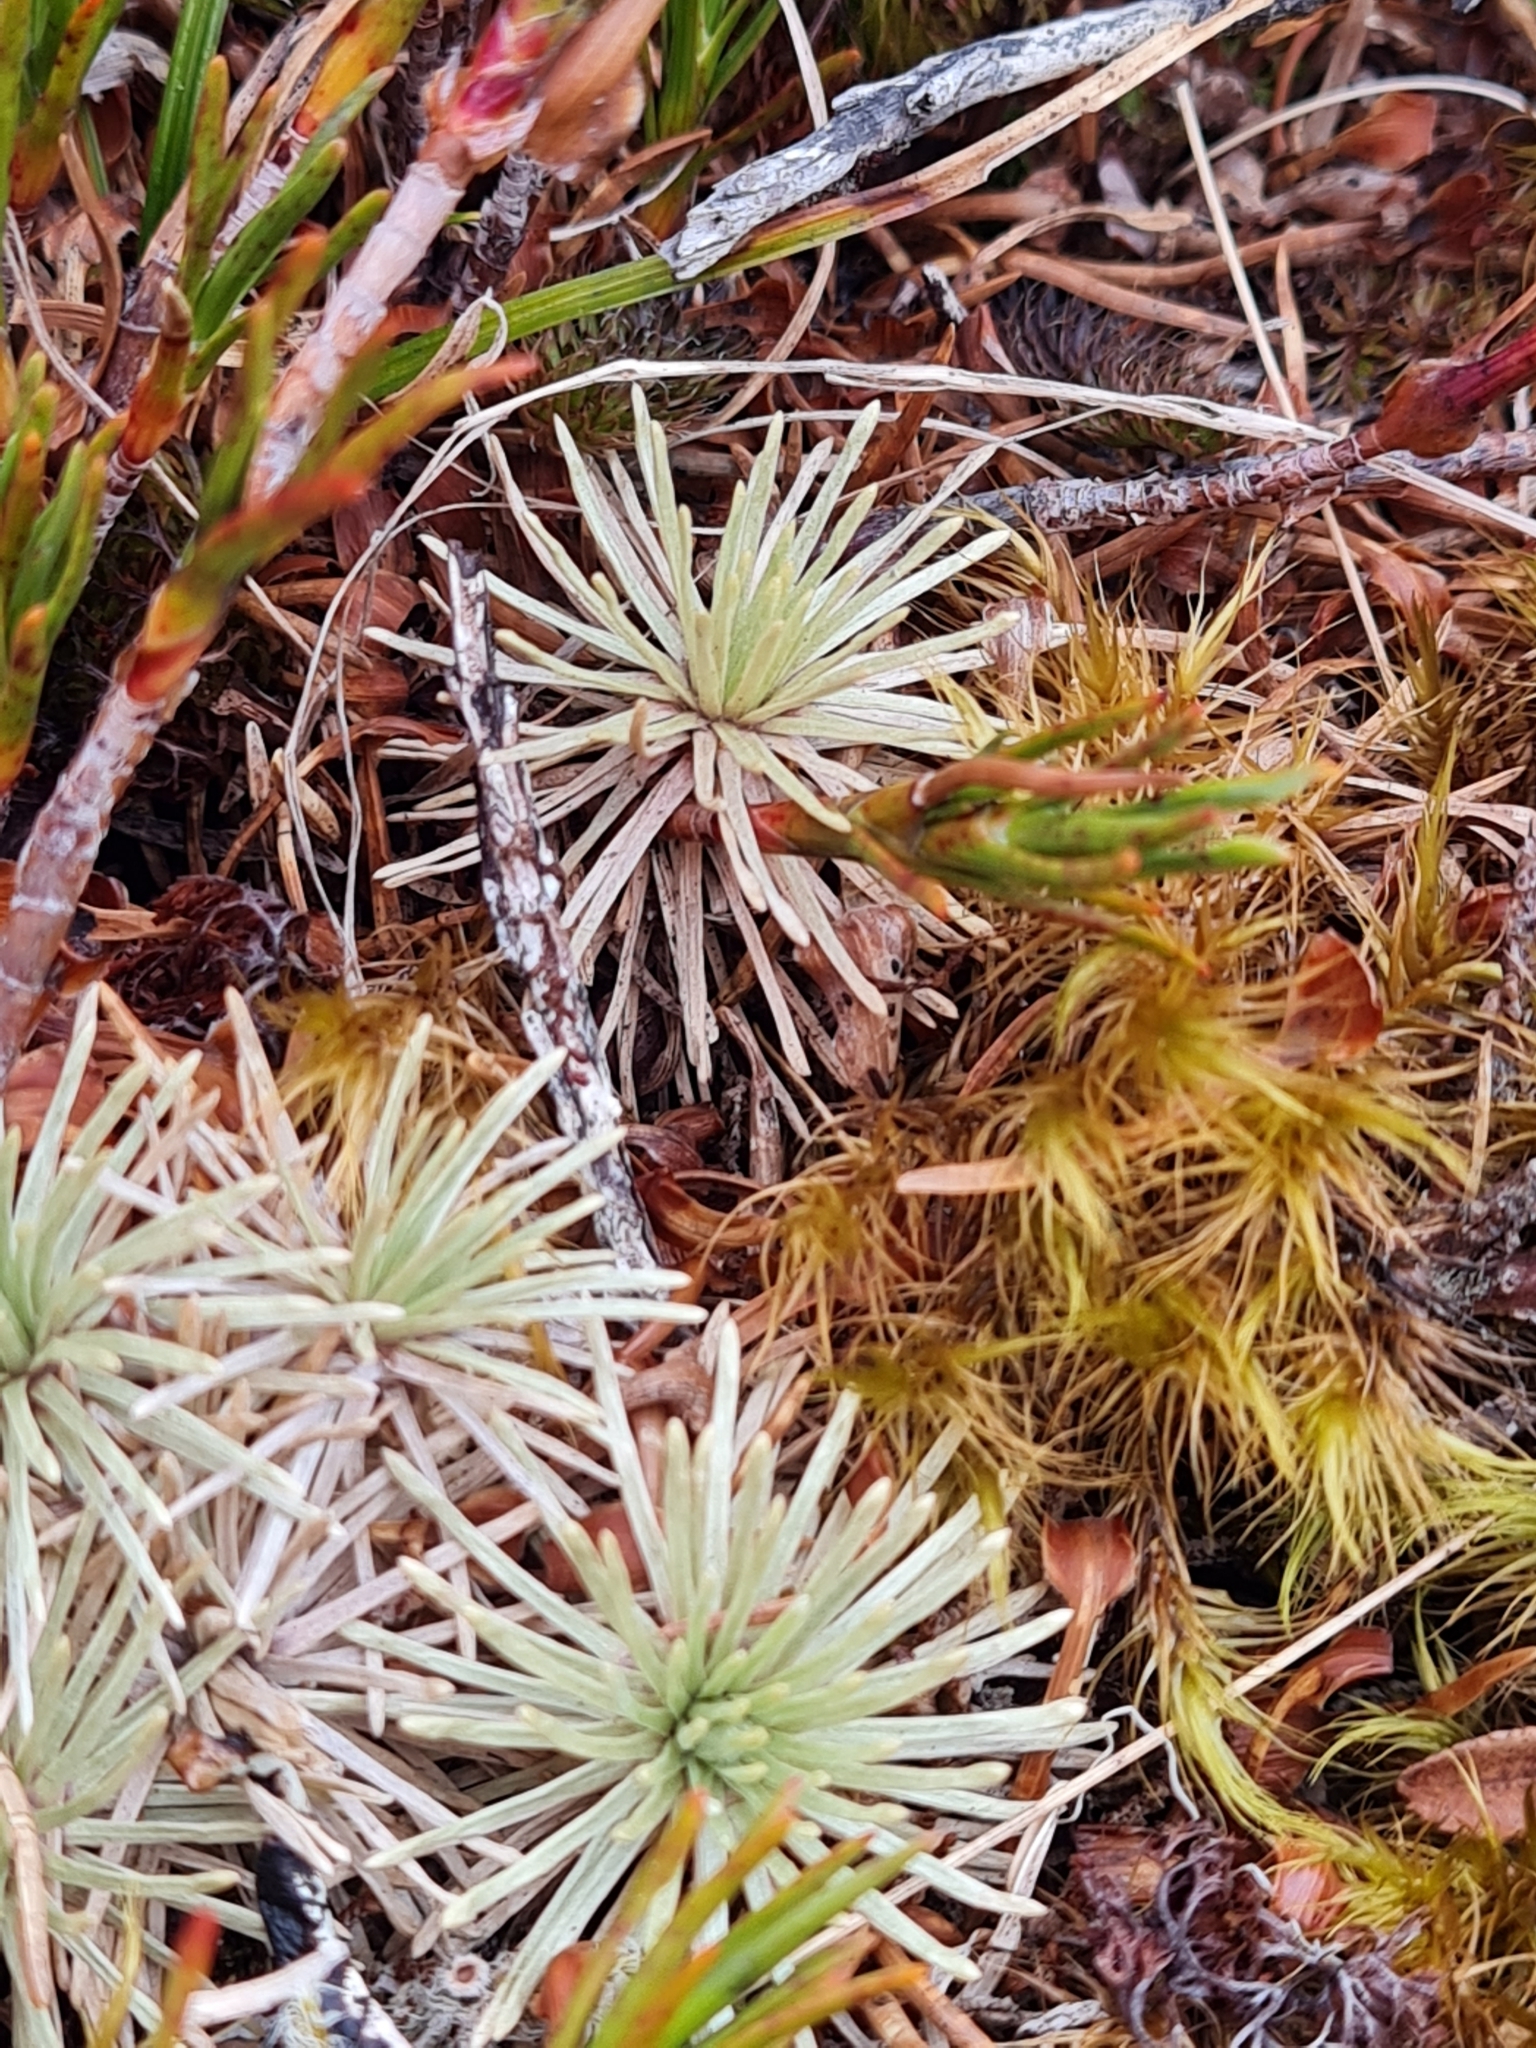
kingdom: Plantae
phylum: Tracheophyta
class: Magnoliopsida
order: Asterales
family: Asteraceae
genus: Celmisia
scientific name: Celmisia sessiliflora
